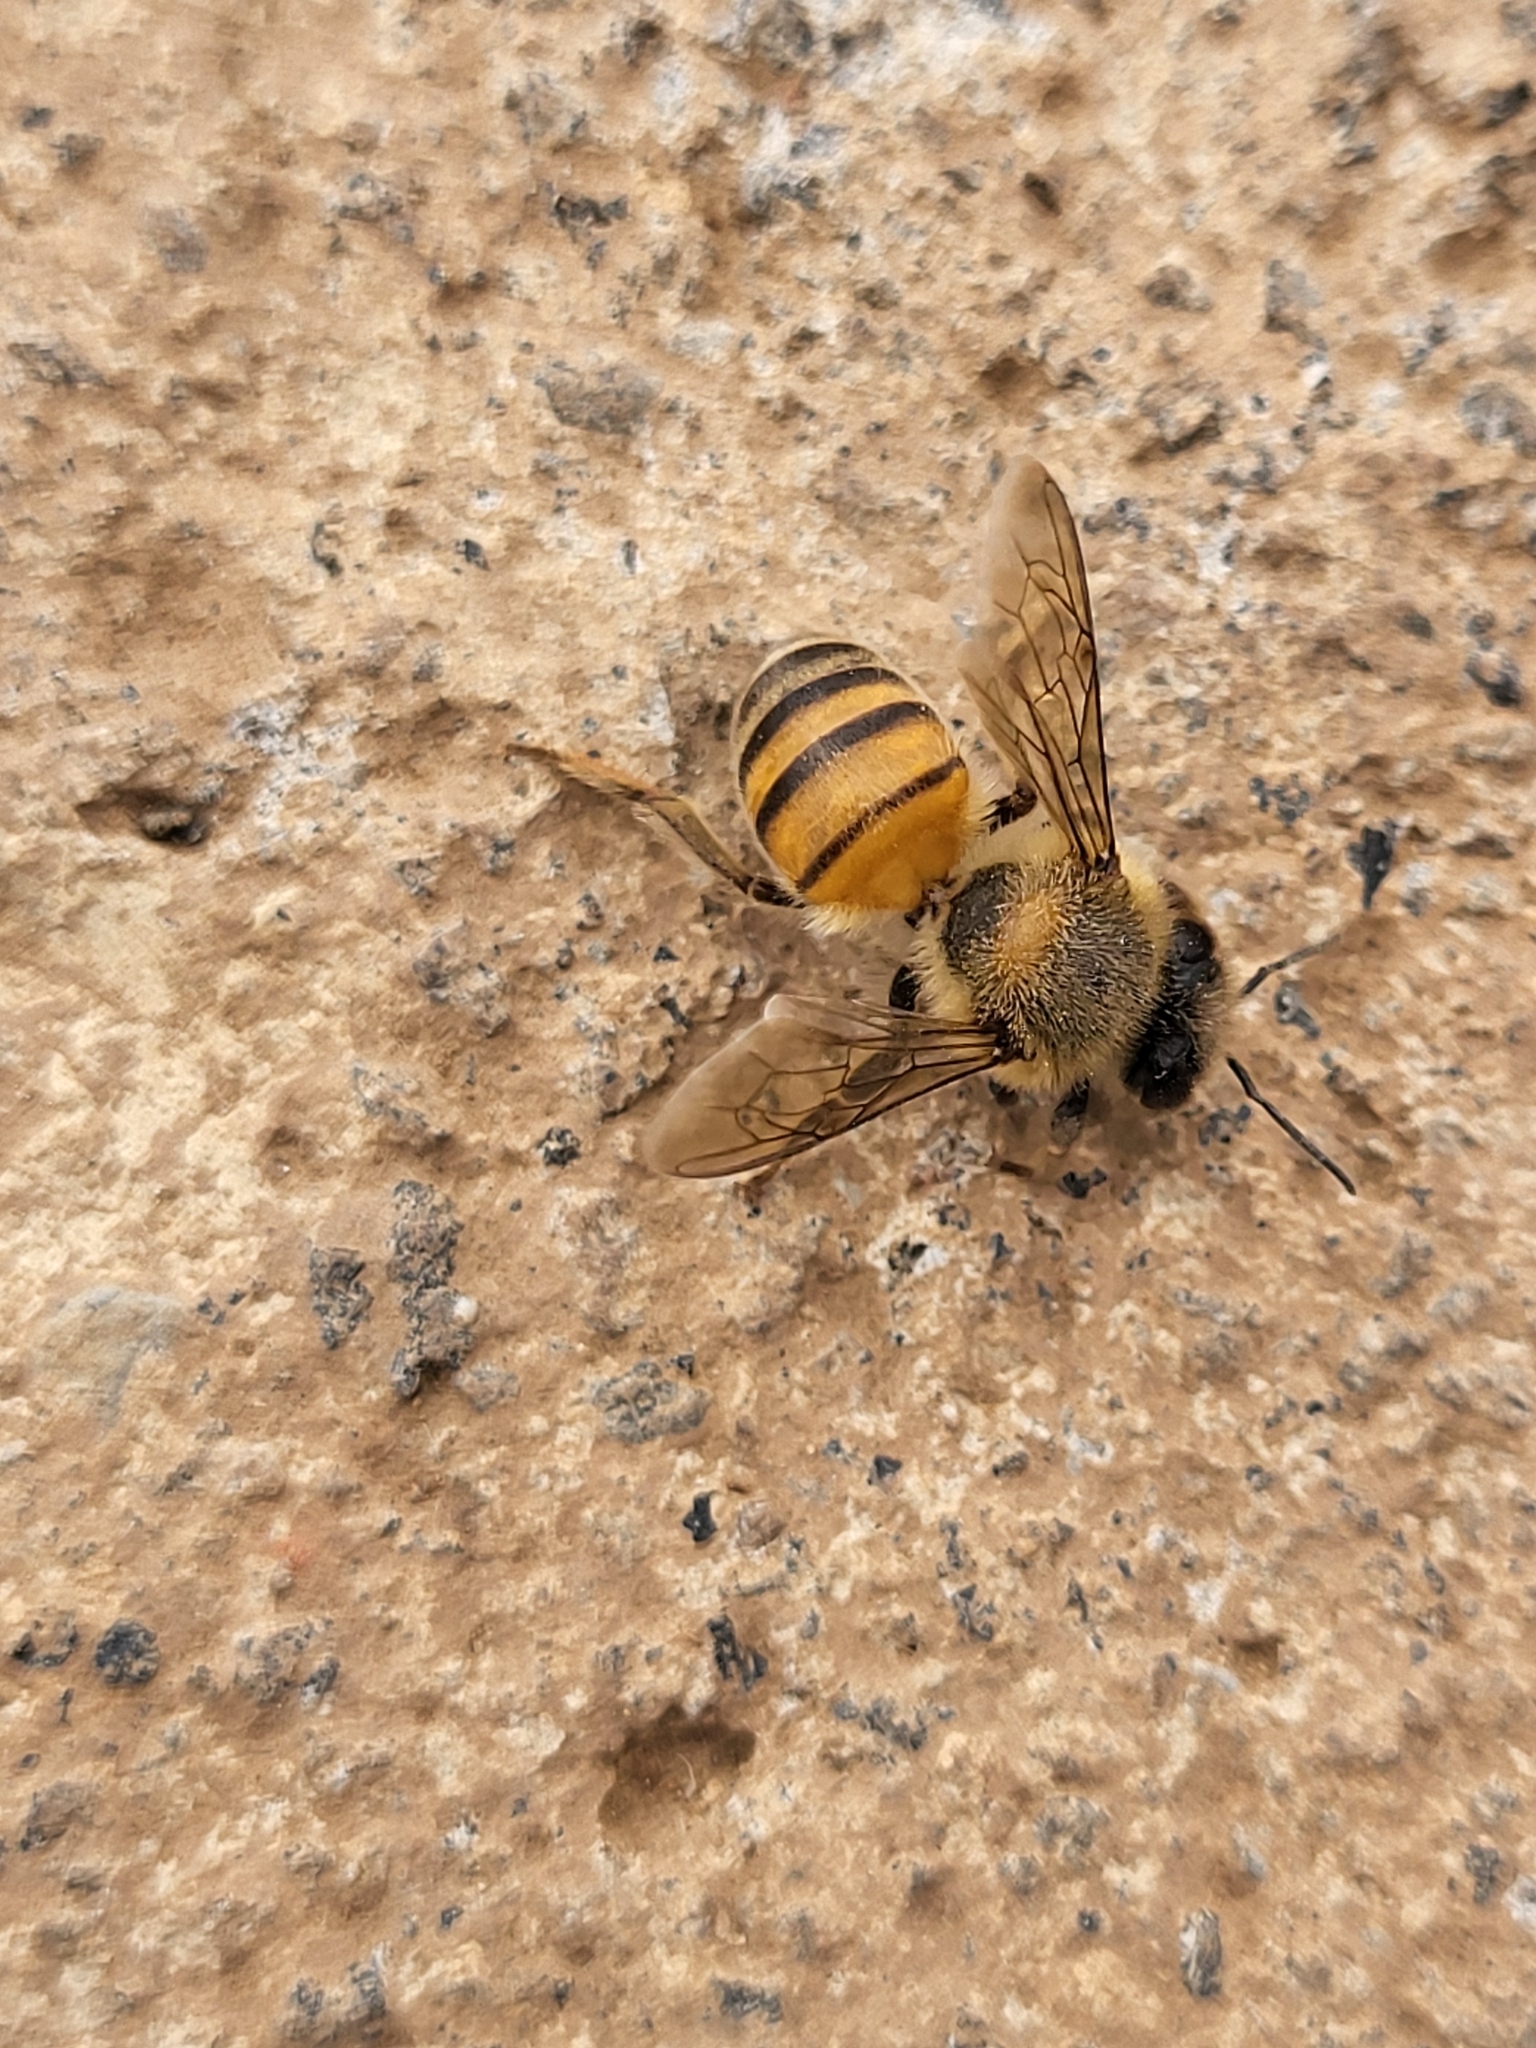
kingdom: Animalia
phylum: Arthropoda
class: Insecta
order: Hymenoptera
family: Apidae
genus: Apis
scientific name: Apis mellifera
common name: Honey bee
